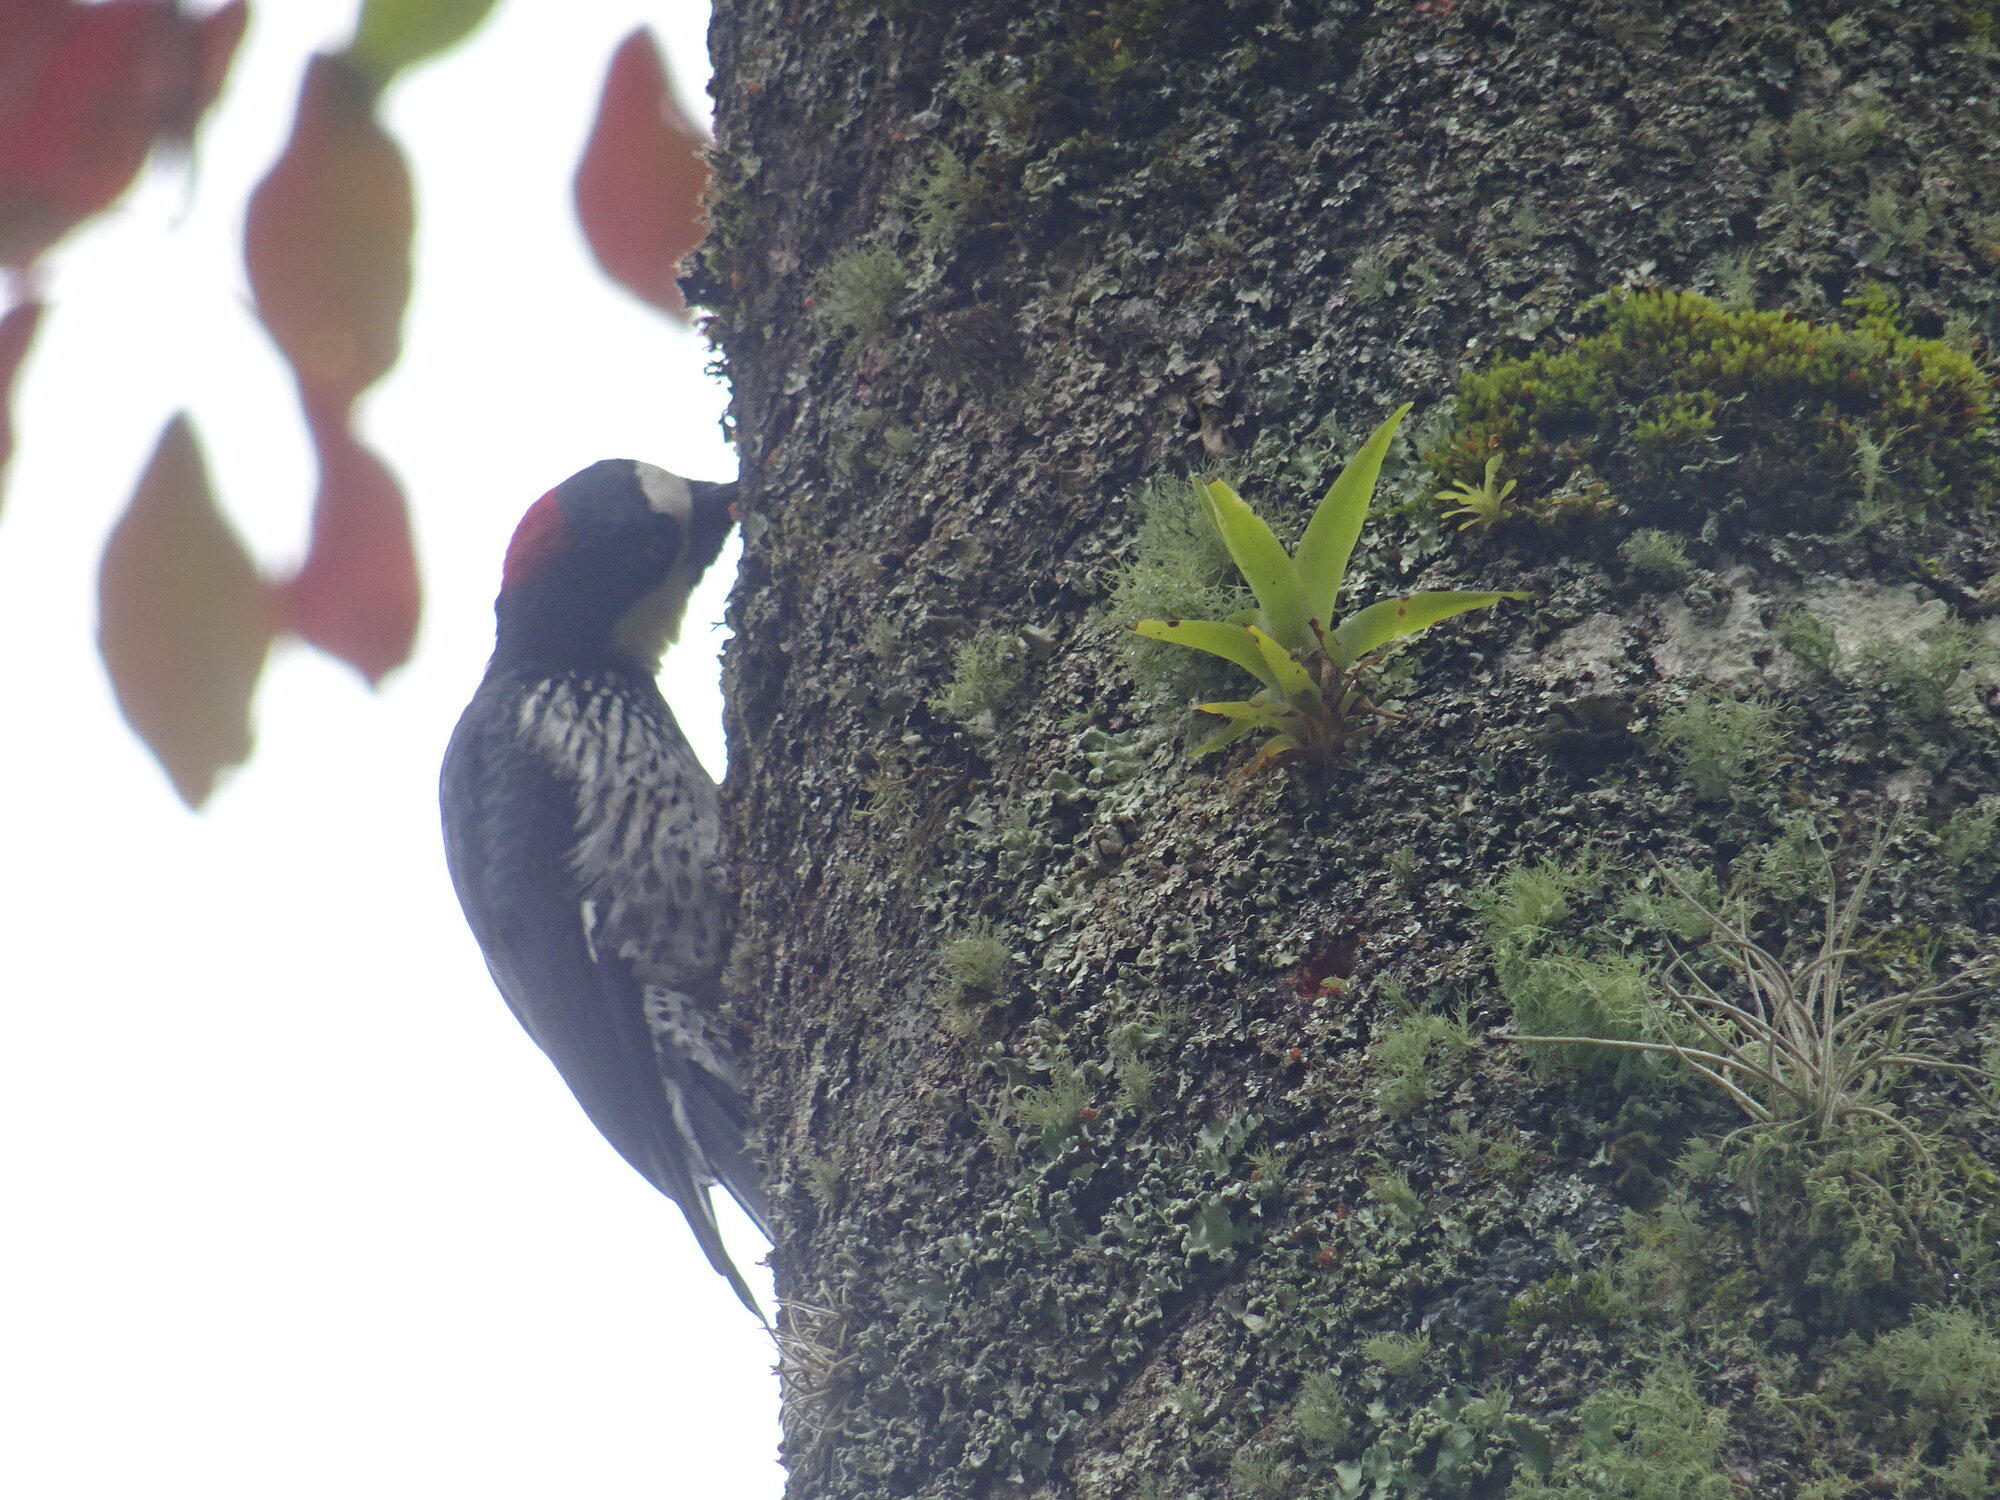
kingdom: Animalia
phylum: Chordata
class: Aves
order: Piciformes
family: Picidae
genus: Melanerpes
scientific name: Melanerpes formicivorus
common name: Acorn woodpecker
